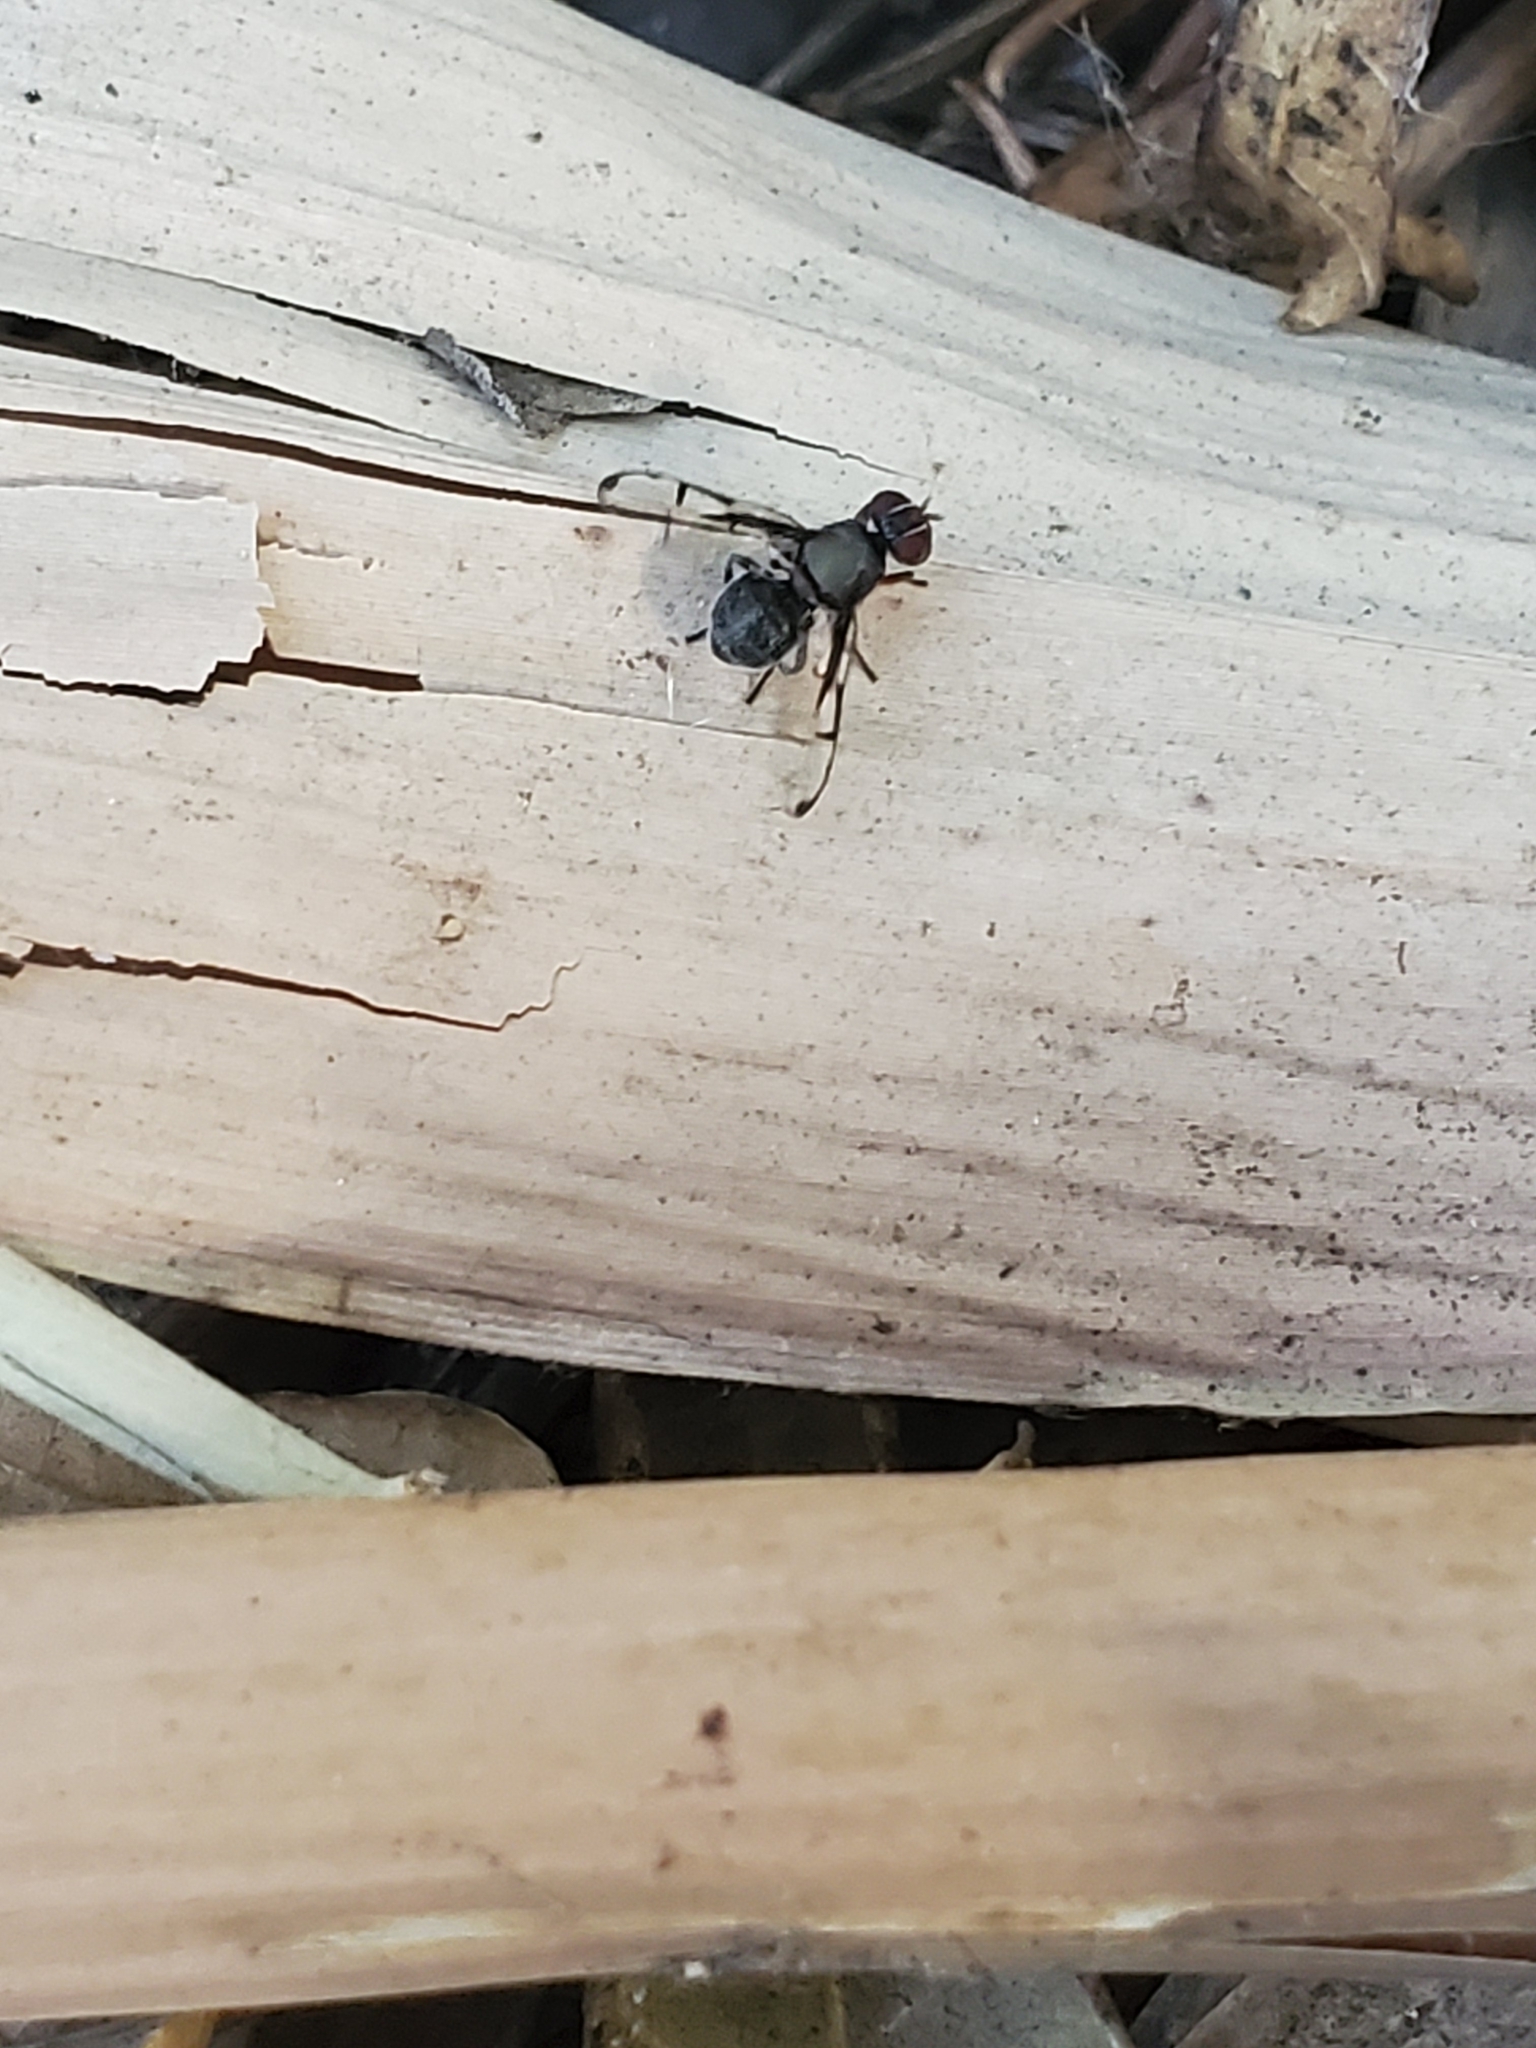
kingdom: Animalia
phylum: Arthropoda
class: Insecta
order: Diptera
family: Platystomatidae
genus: Pogonortalis
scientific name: Pogonortalis doclea
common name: Boatman fly
